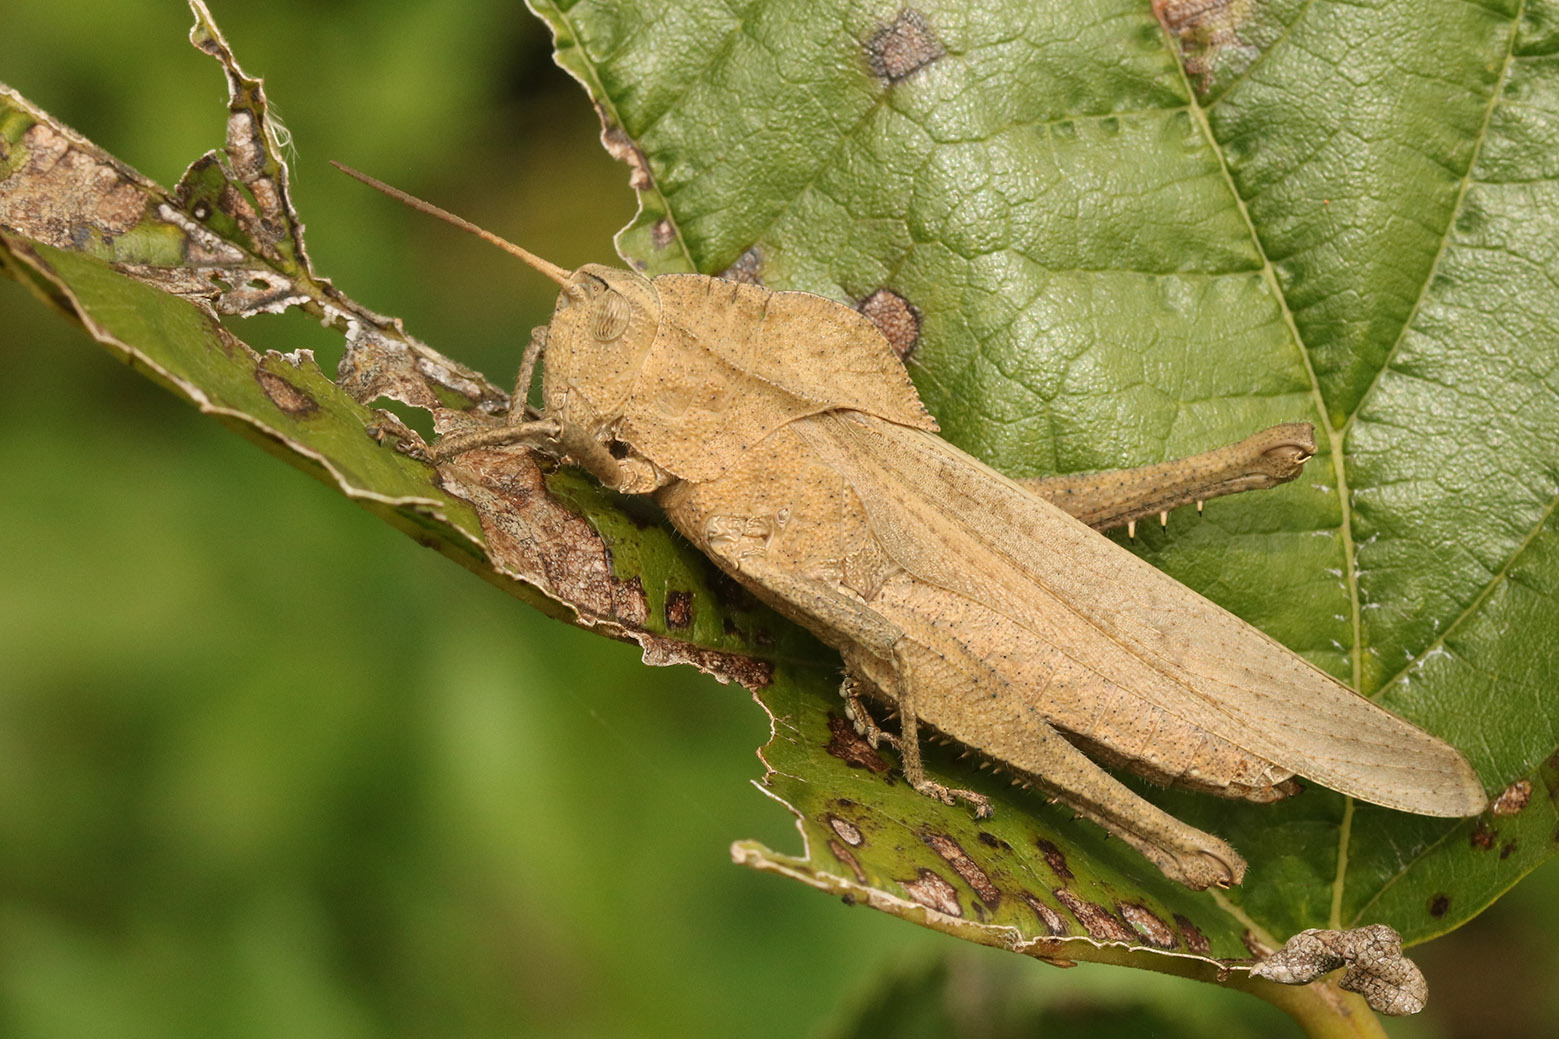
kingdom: Animalia
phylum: Arthropoda
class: Insecta
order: Orthoptera
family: Romaleidae
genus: Xyleus
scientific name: Xyleus discoideus
